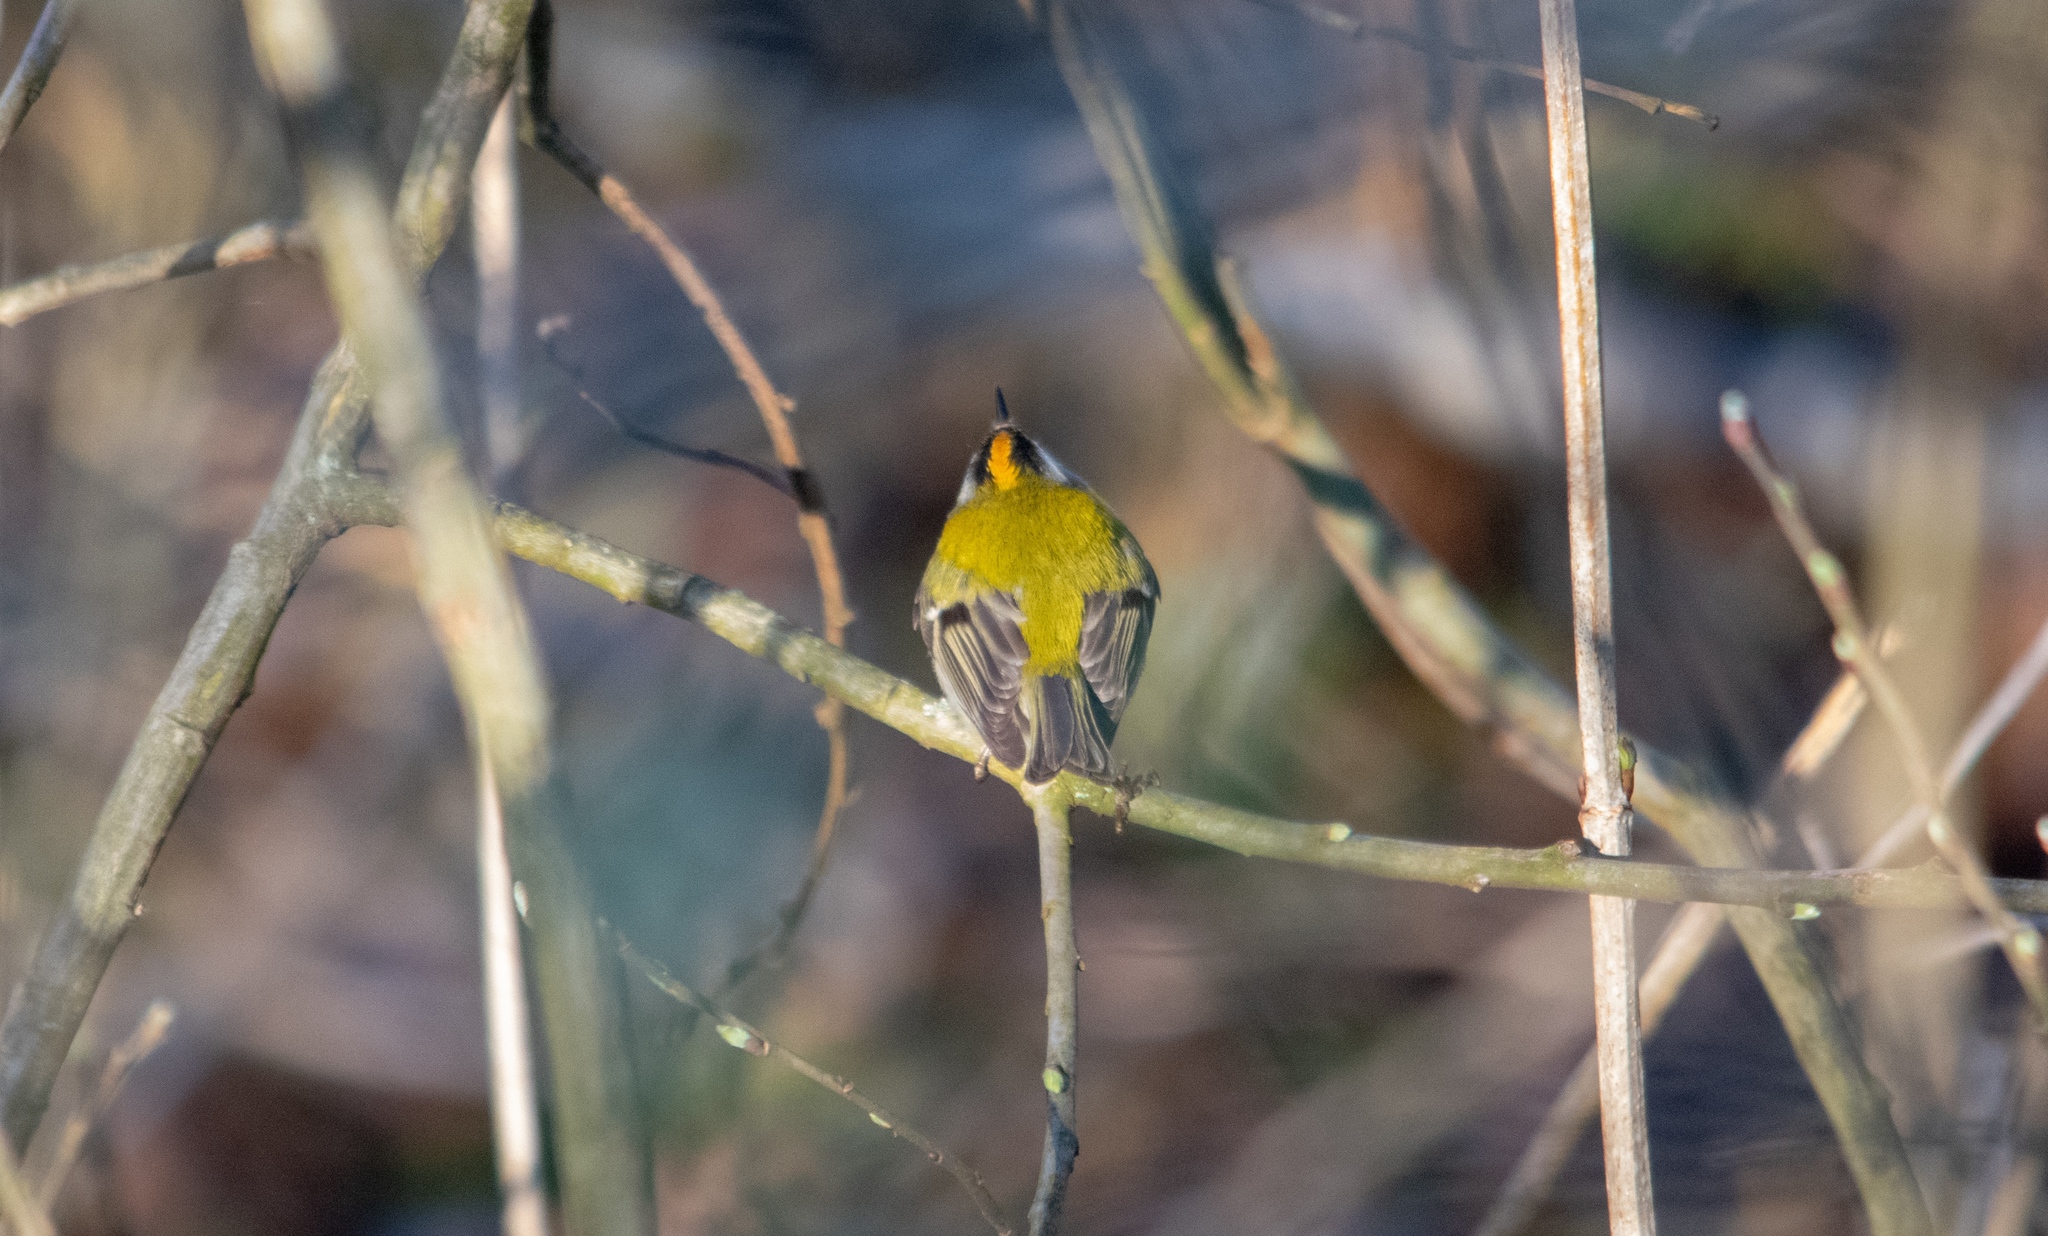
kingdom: Animalia
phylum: Chordata
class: Aves
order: Passeriformes
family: Regulidae
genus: Regulus
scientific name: Regulus ignicapilla
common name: Firecrest
